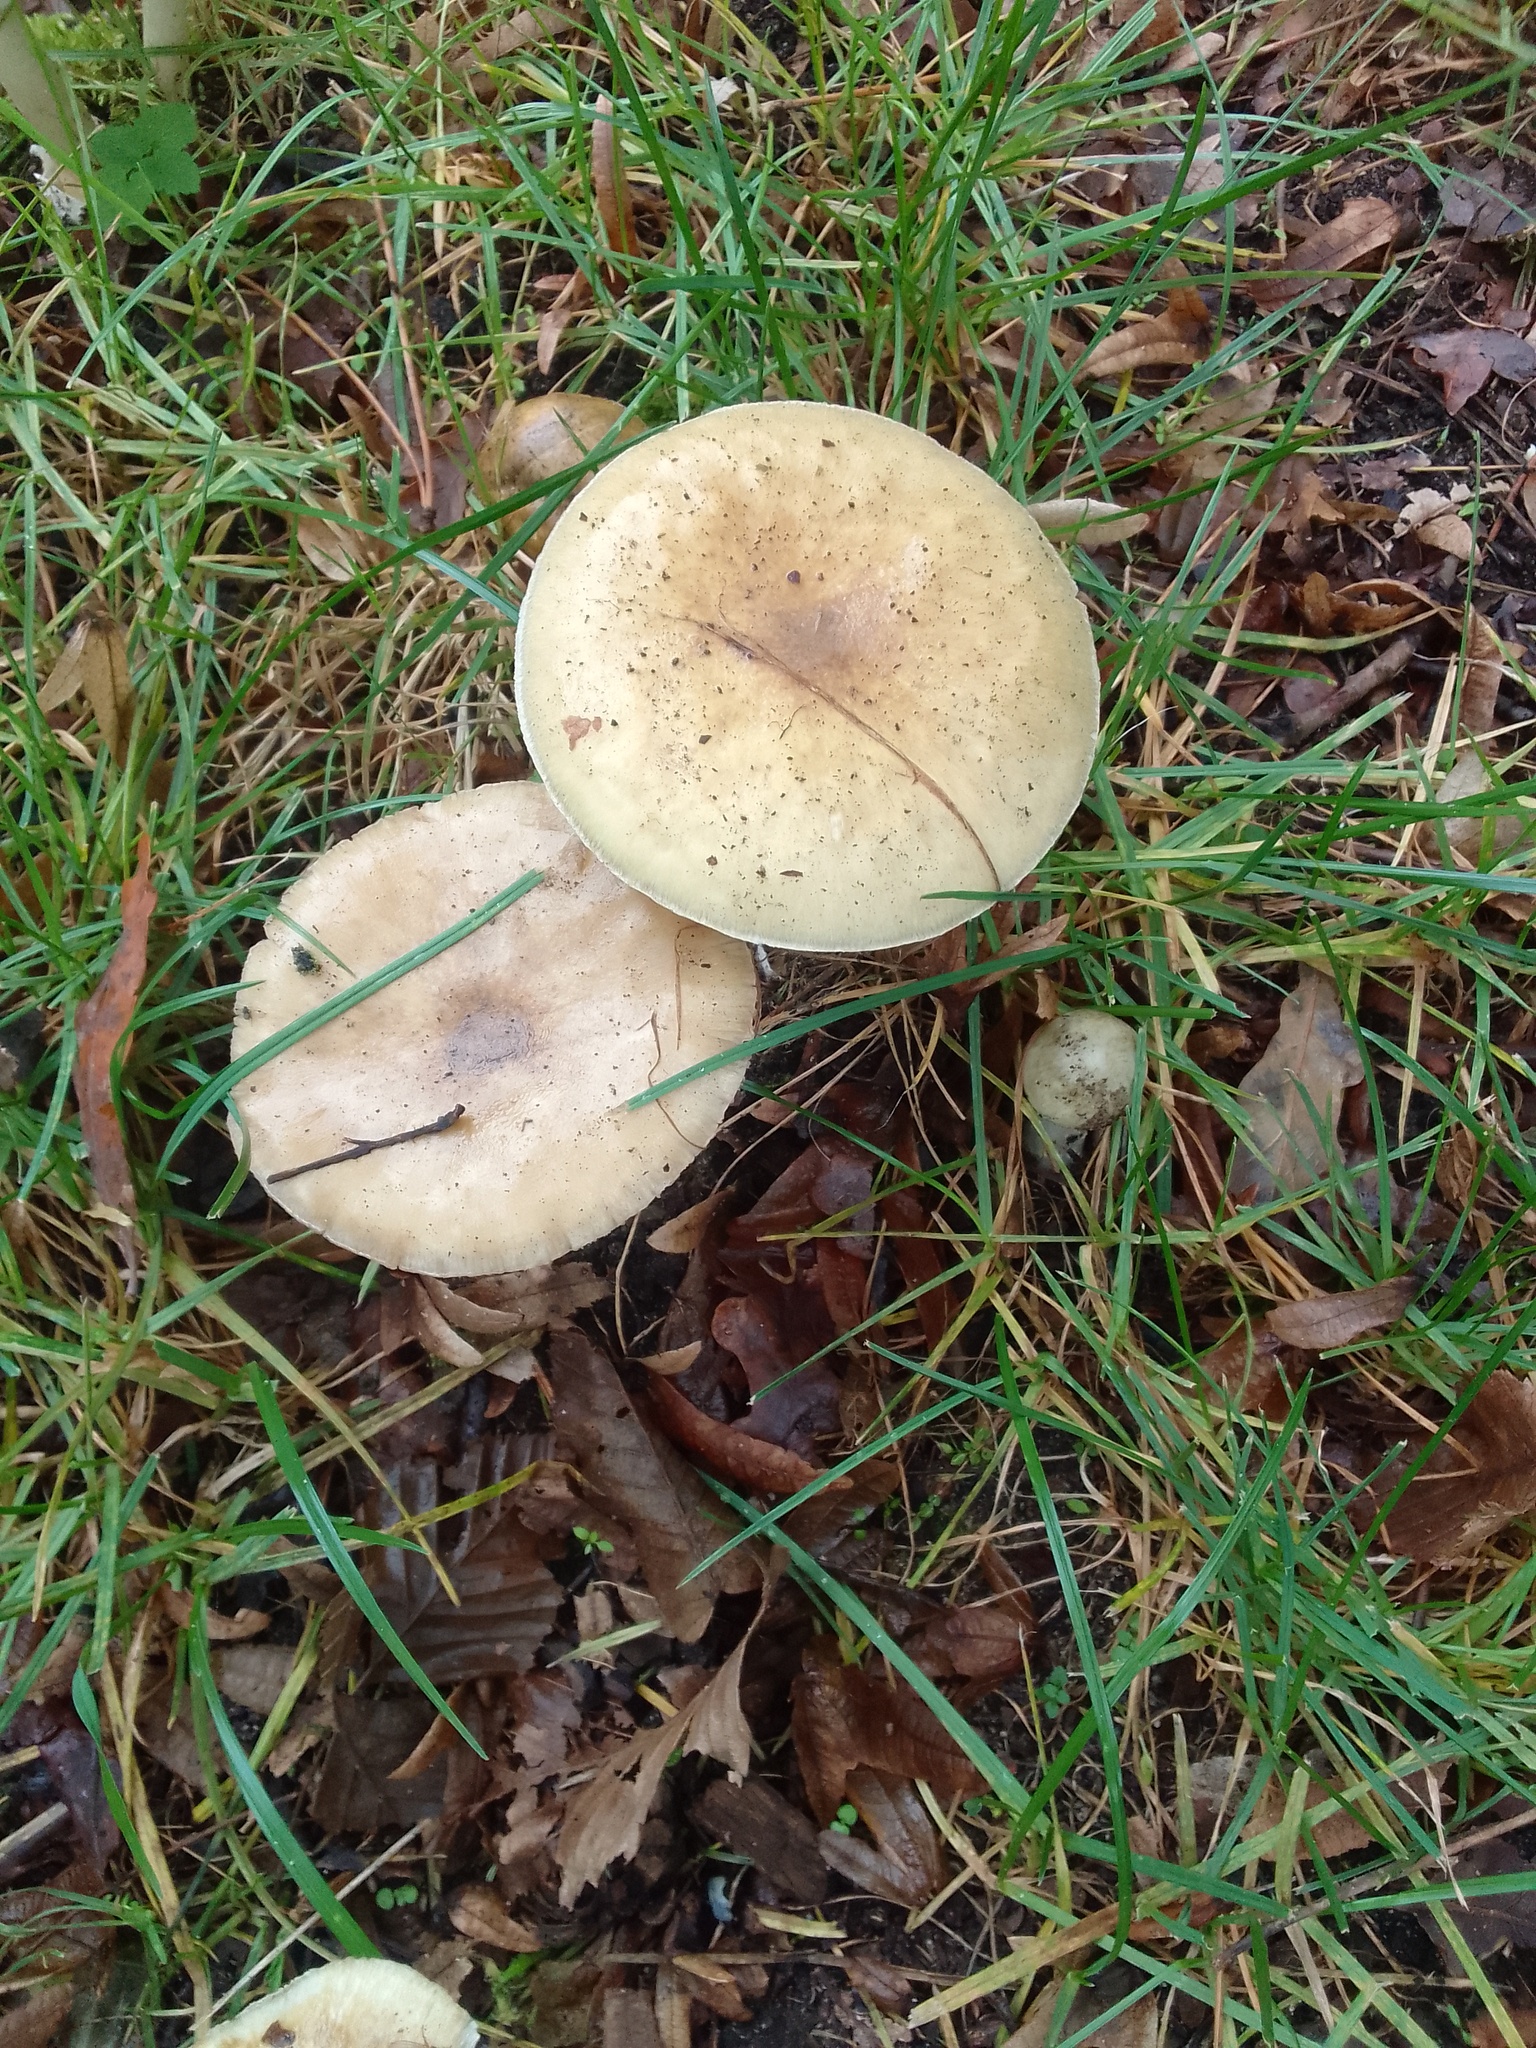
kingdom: Fungi
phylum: Basidiomycota
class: Agaricomycetes
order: Agaricales
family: Amanitaceae
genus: Amanita
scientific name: Amanita phalloides
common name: Death cap
